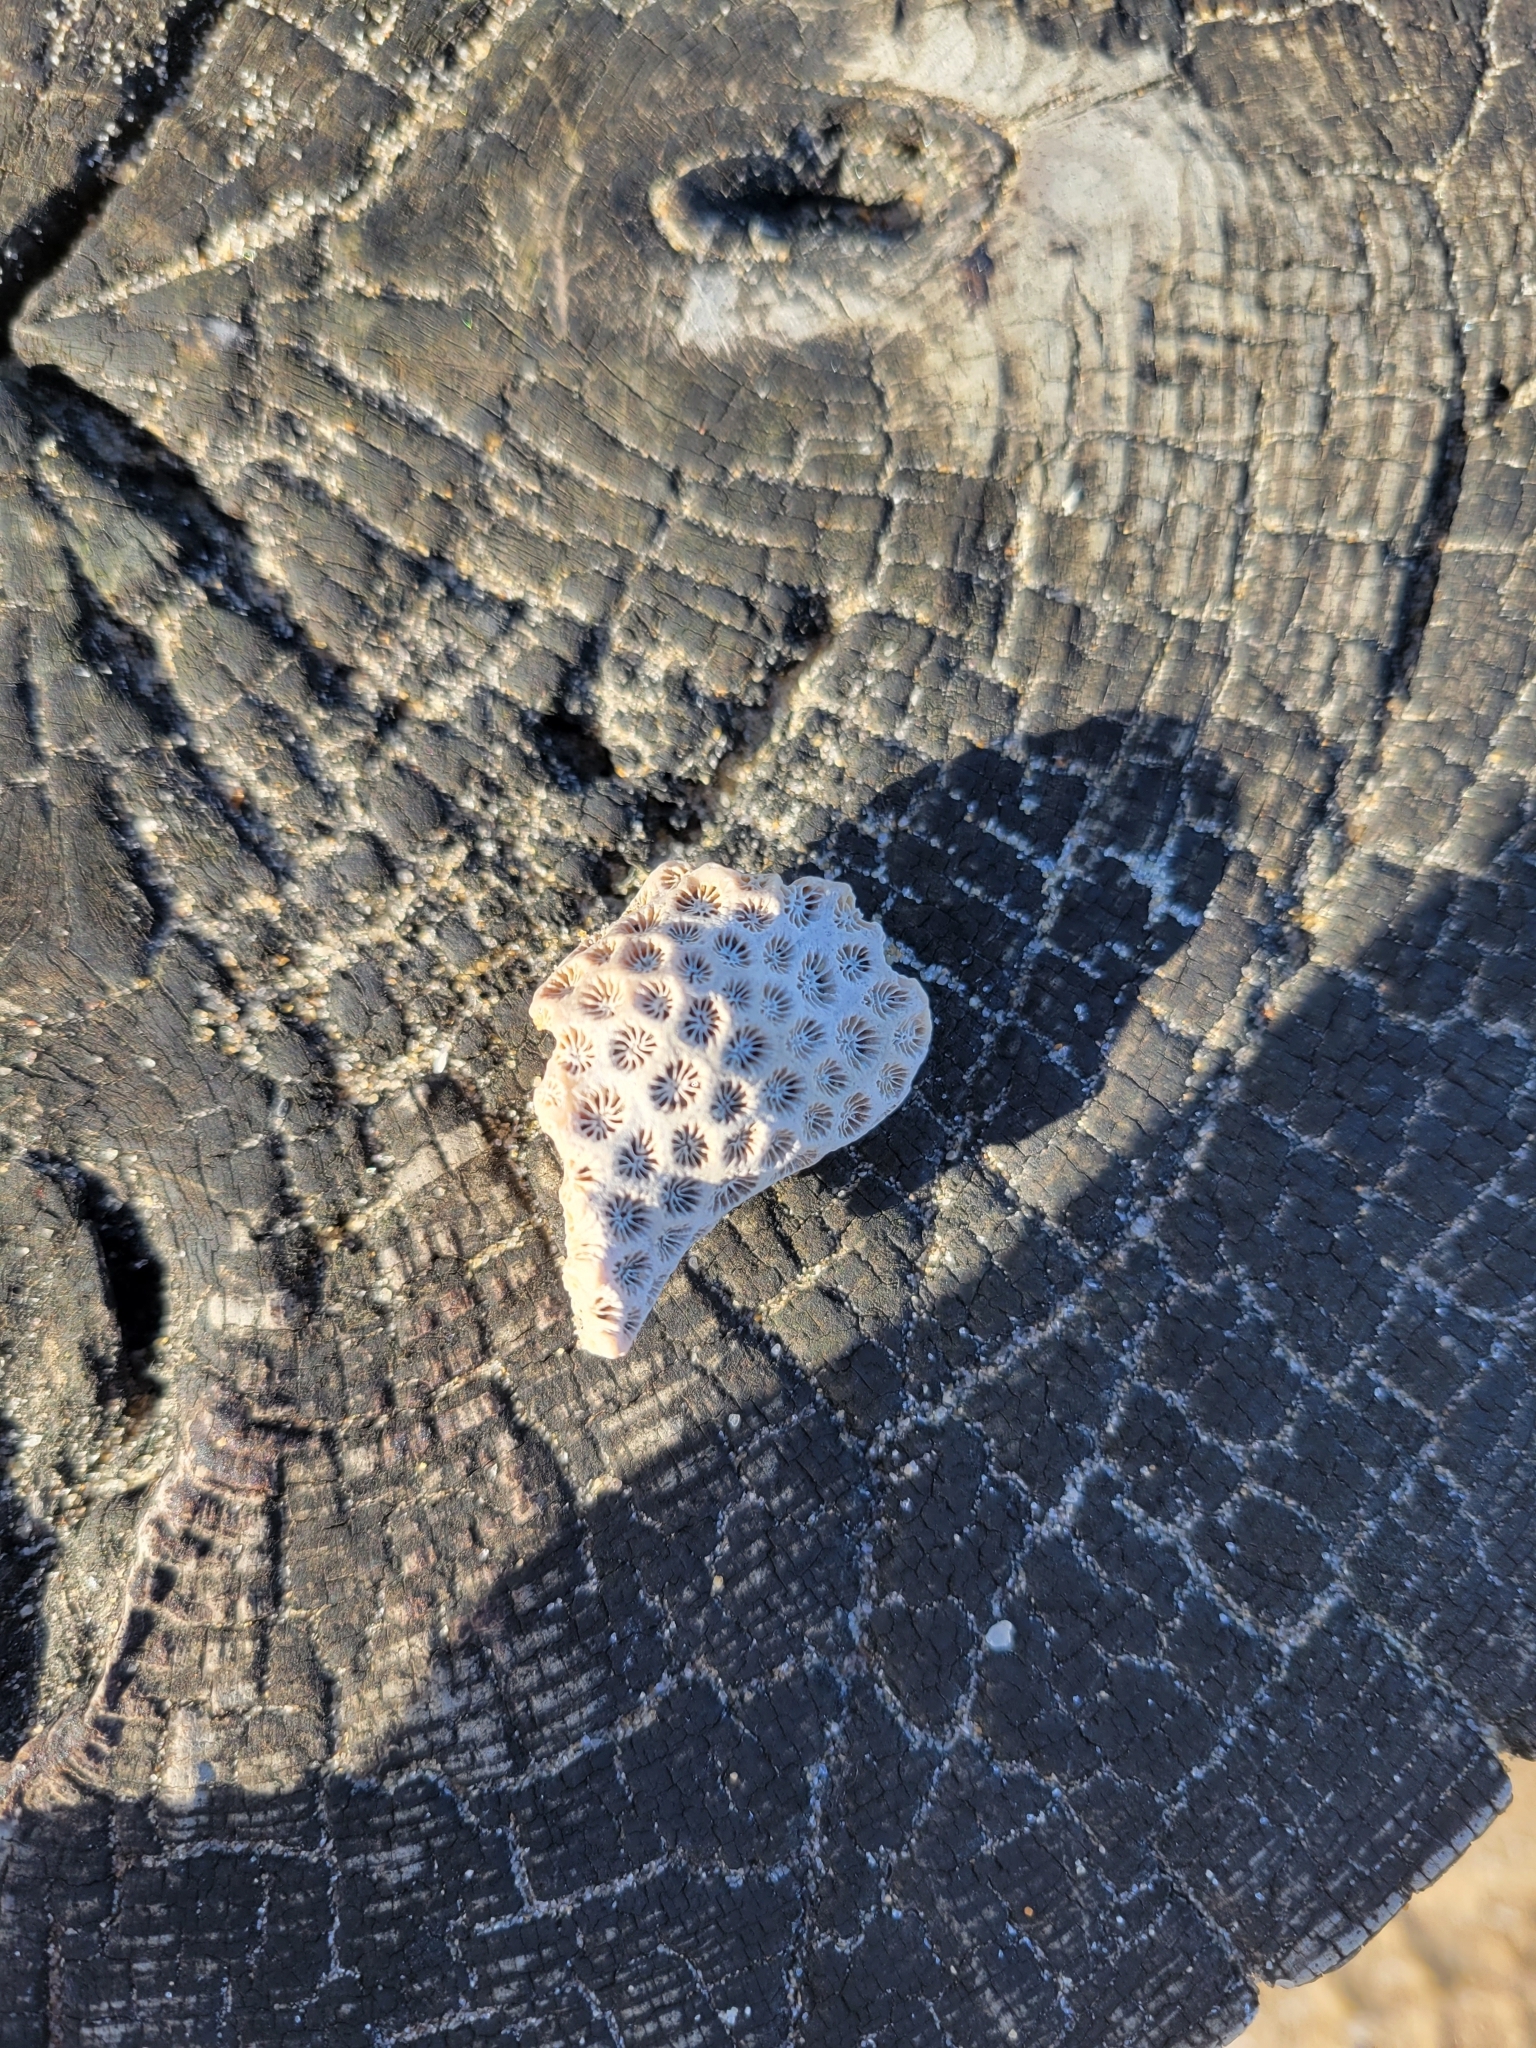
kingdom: Animalia
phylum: Cnidaria
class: Anthozoa
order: Scleractinia
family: Astrangiidae
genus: Astrangia
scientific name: Astrangia poculata
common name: Northern star coral
